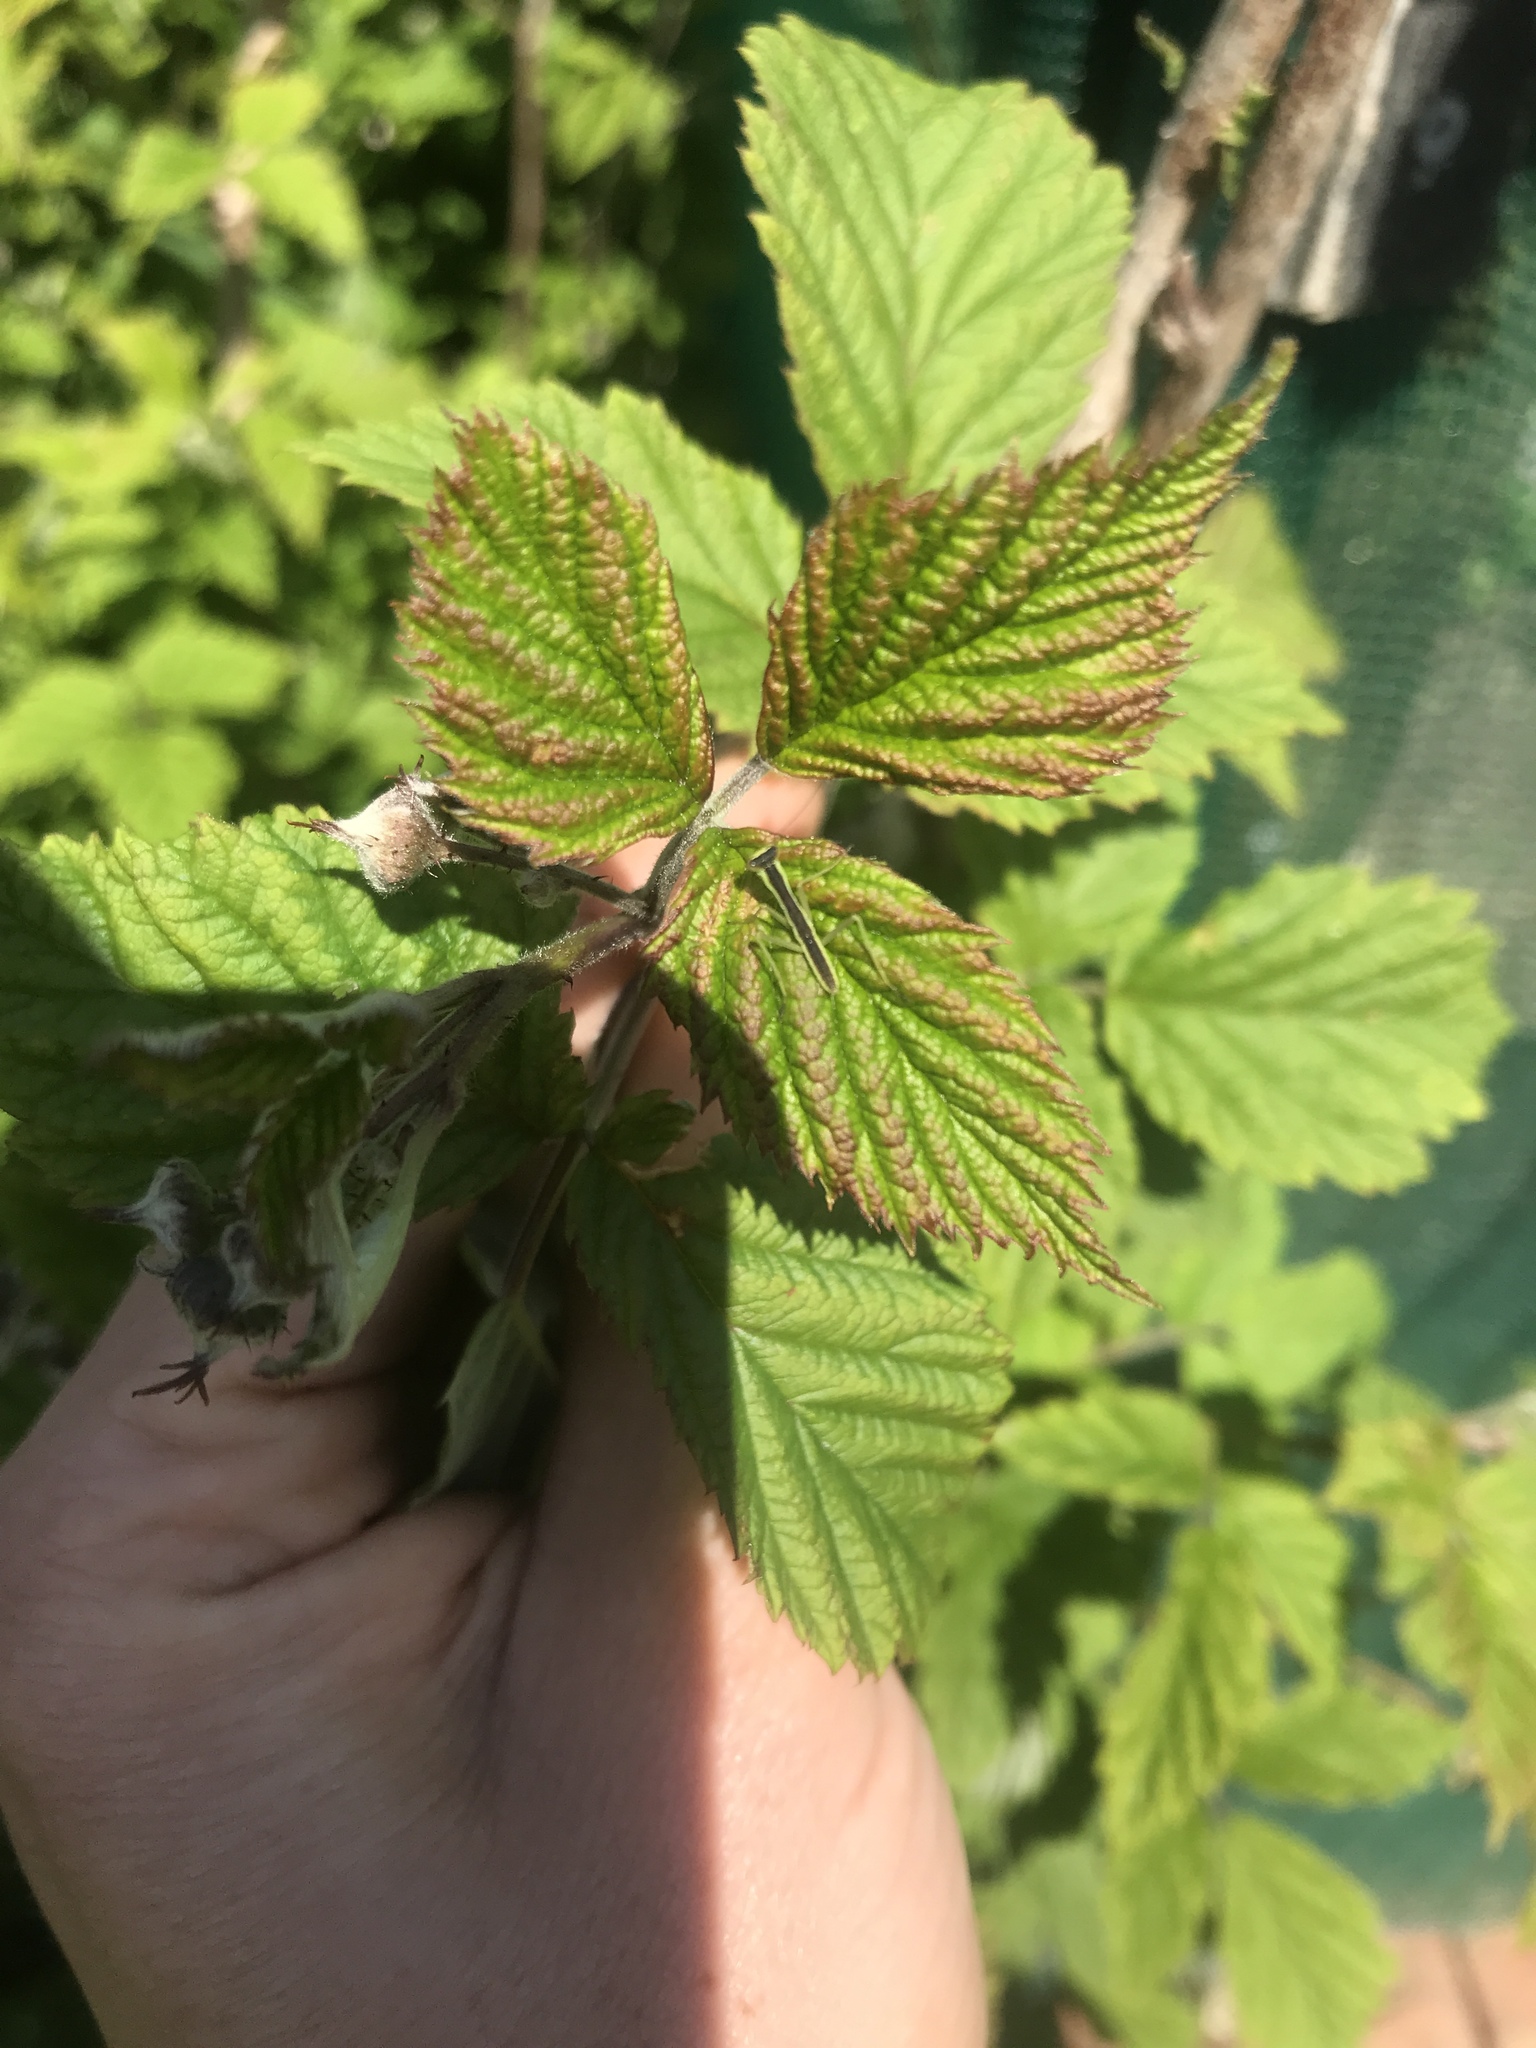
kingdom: Animalia
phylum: Arthropoda
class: Insecta
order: Mantodea
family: Mantidae
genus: Orthodera
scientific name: Orthodera novaezealandiae
